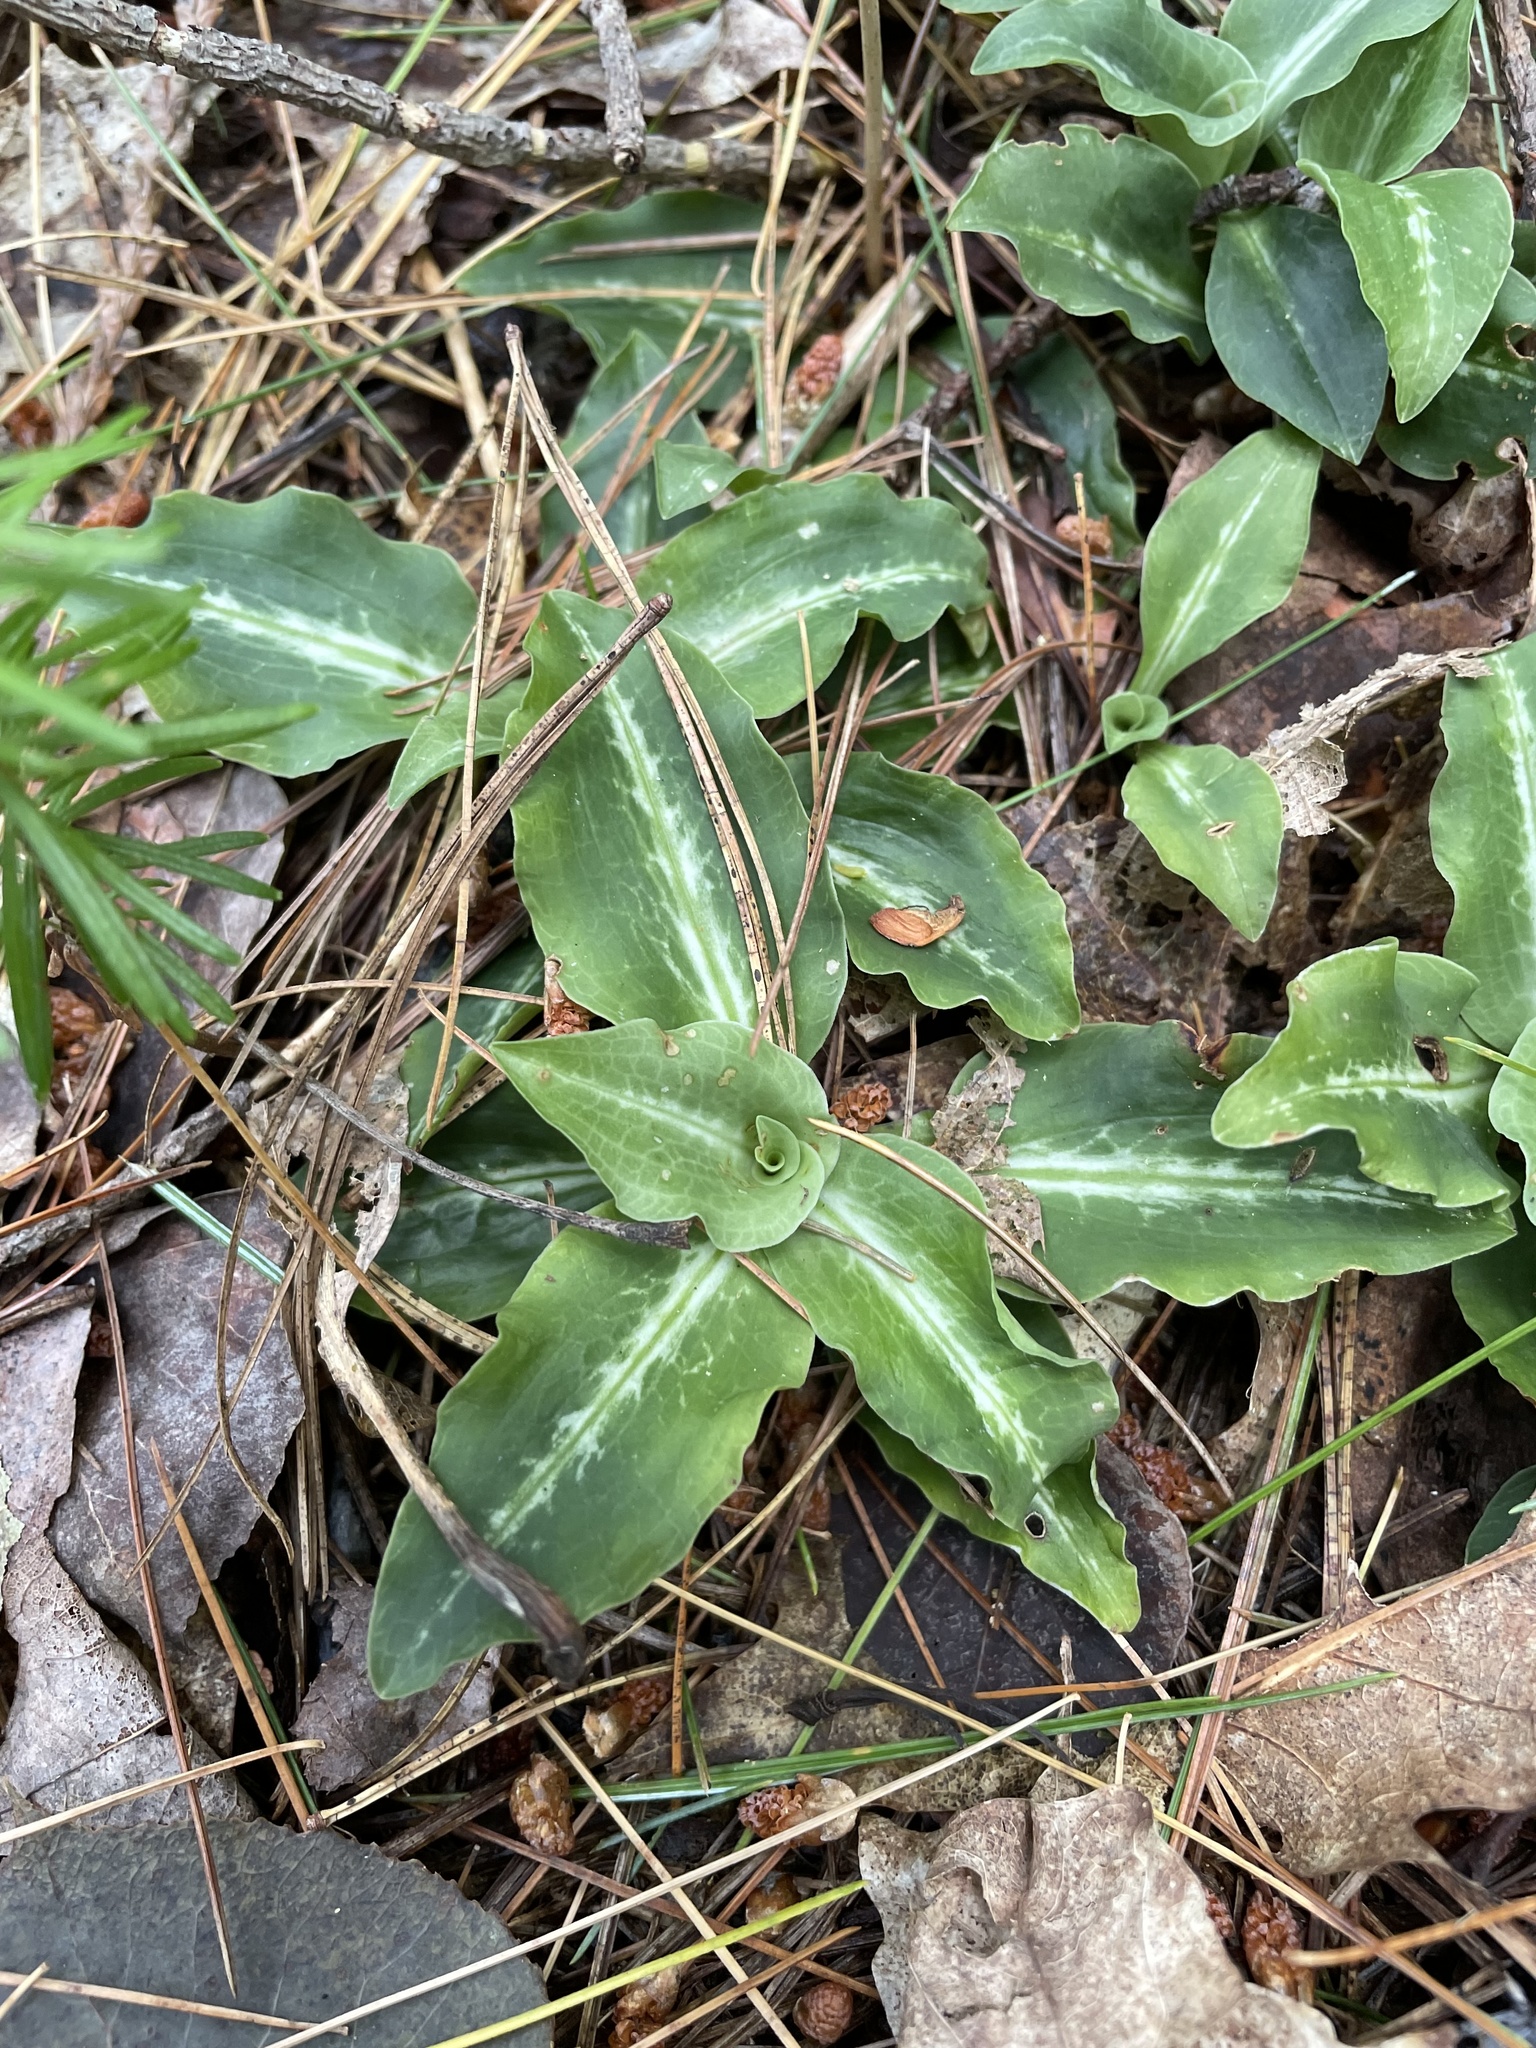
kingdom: Plantae
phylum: Tracheophyta
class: Liliopsida
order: Asparagales
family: Orchidaceae
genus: Goodyera
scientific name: Goodyera oblongifolia
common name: Giant rattlesnake-plantain
